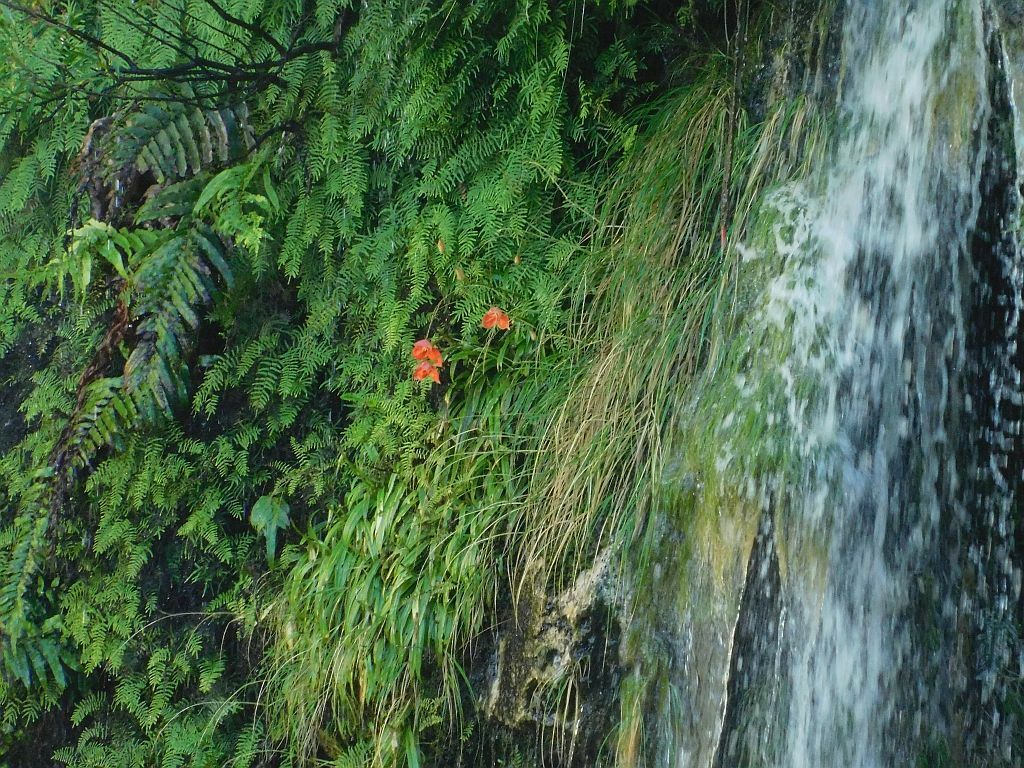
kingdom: Plantae
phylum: Tracheophyta
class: Liliopsida
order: Asparagales
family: Orchidaceae
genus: Disa
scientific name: Disa uniflora
